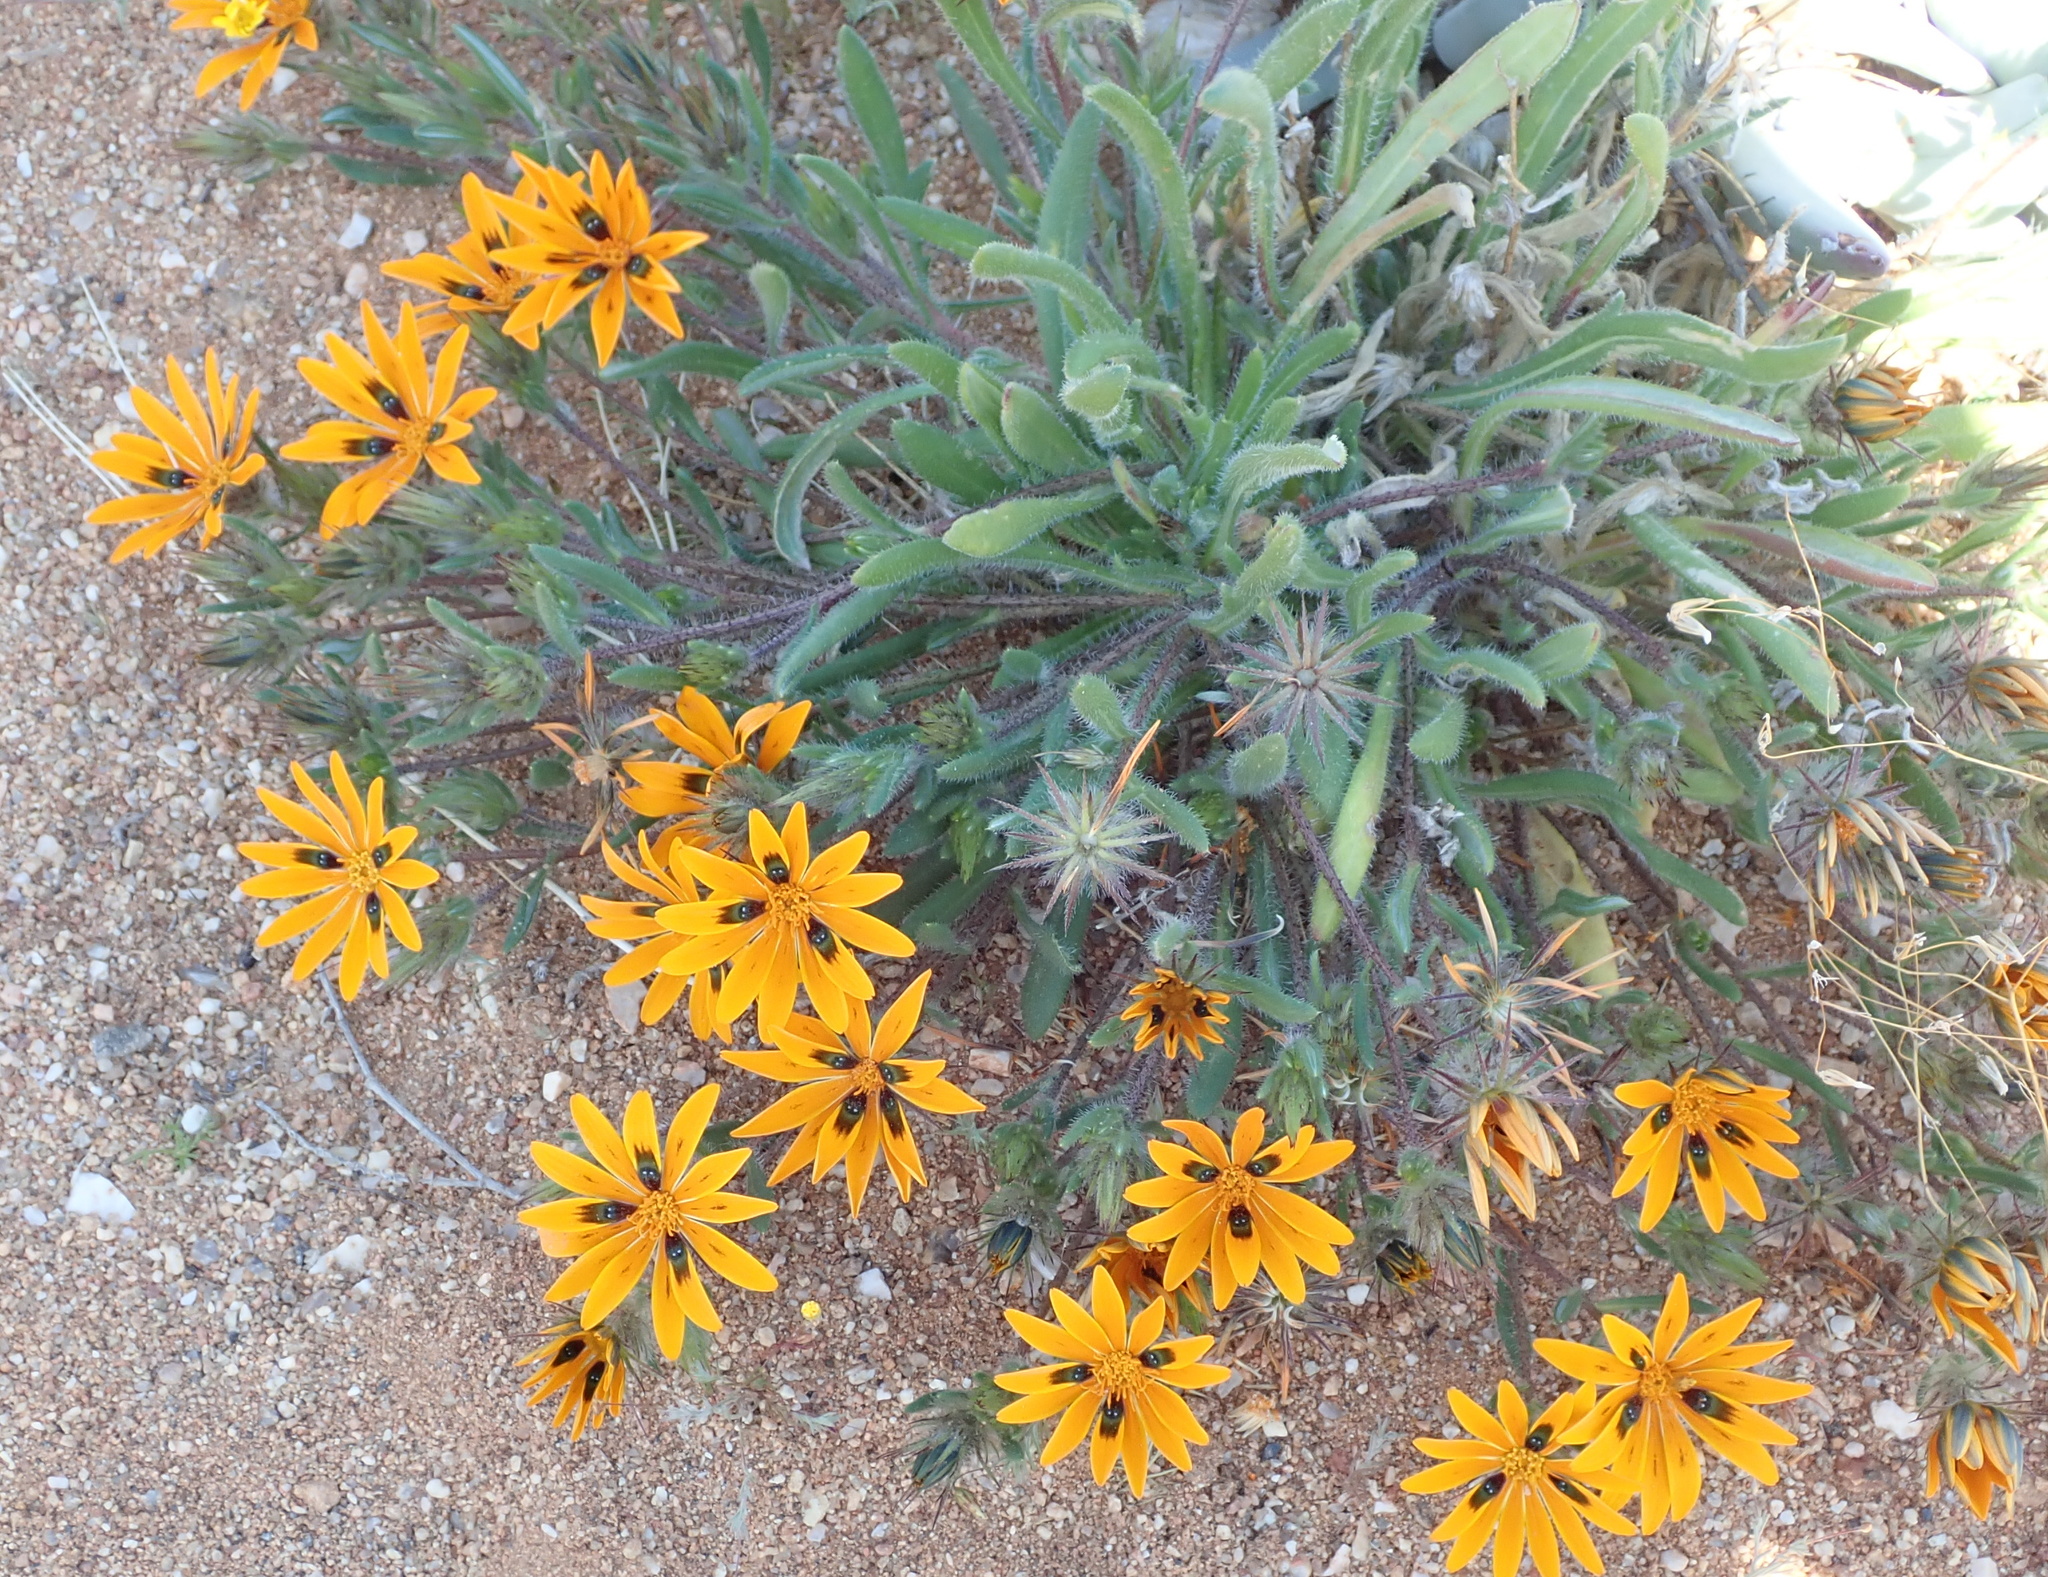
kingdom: Plantae
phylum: Tracheophyta
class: Magnoliopsida
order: Asterales
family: Asteraceae
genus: Gorteria
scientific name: Gorteria diffusa
